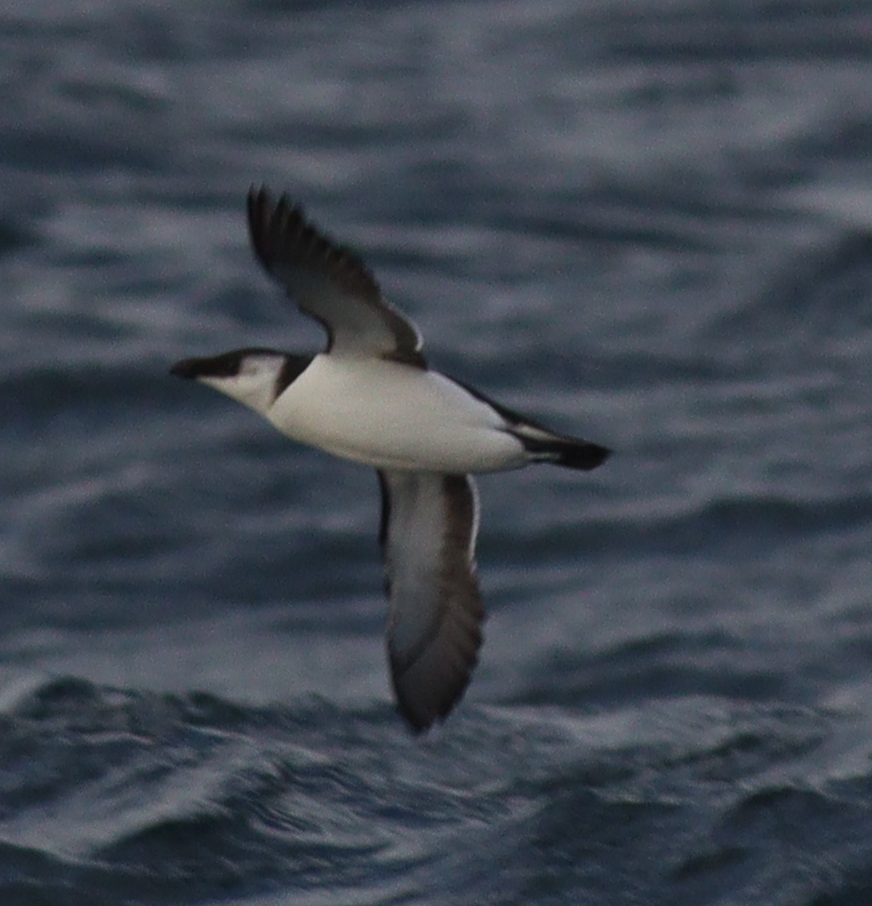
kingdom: Animalia
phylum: Chordata
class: Aves
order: Charadriiformes
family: Alcidae
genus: Alca
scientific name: Alca torda
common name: Razorbill
